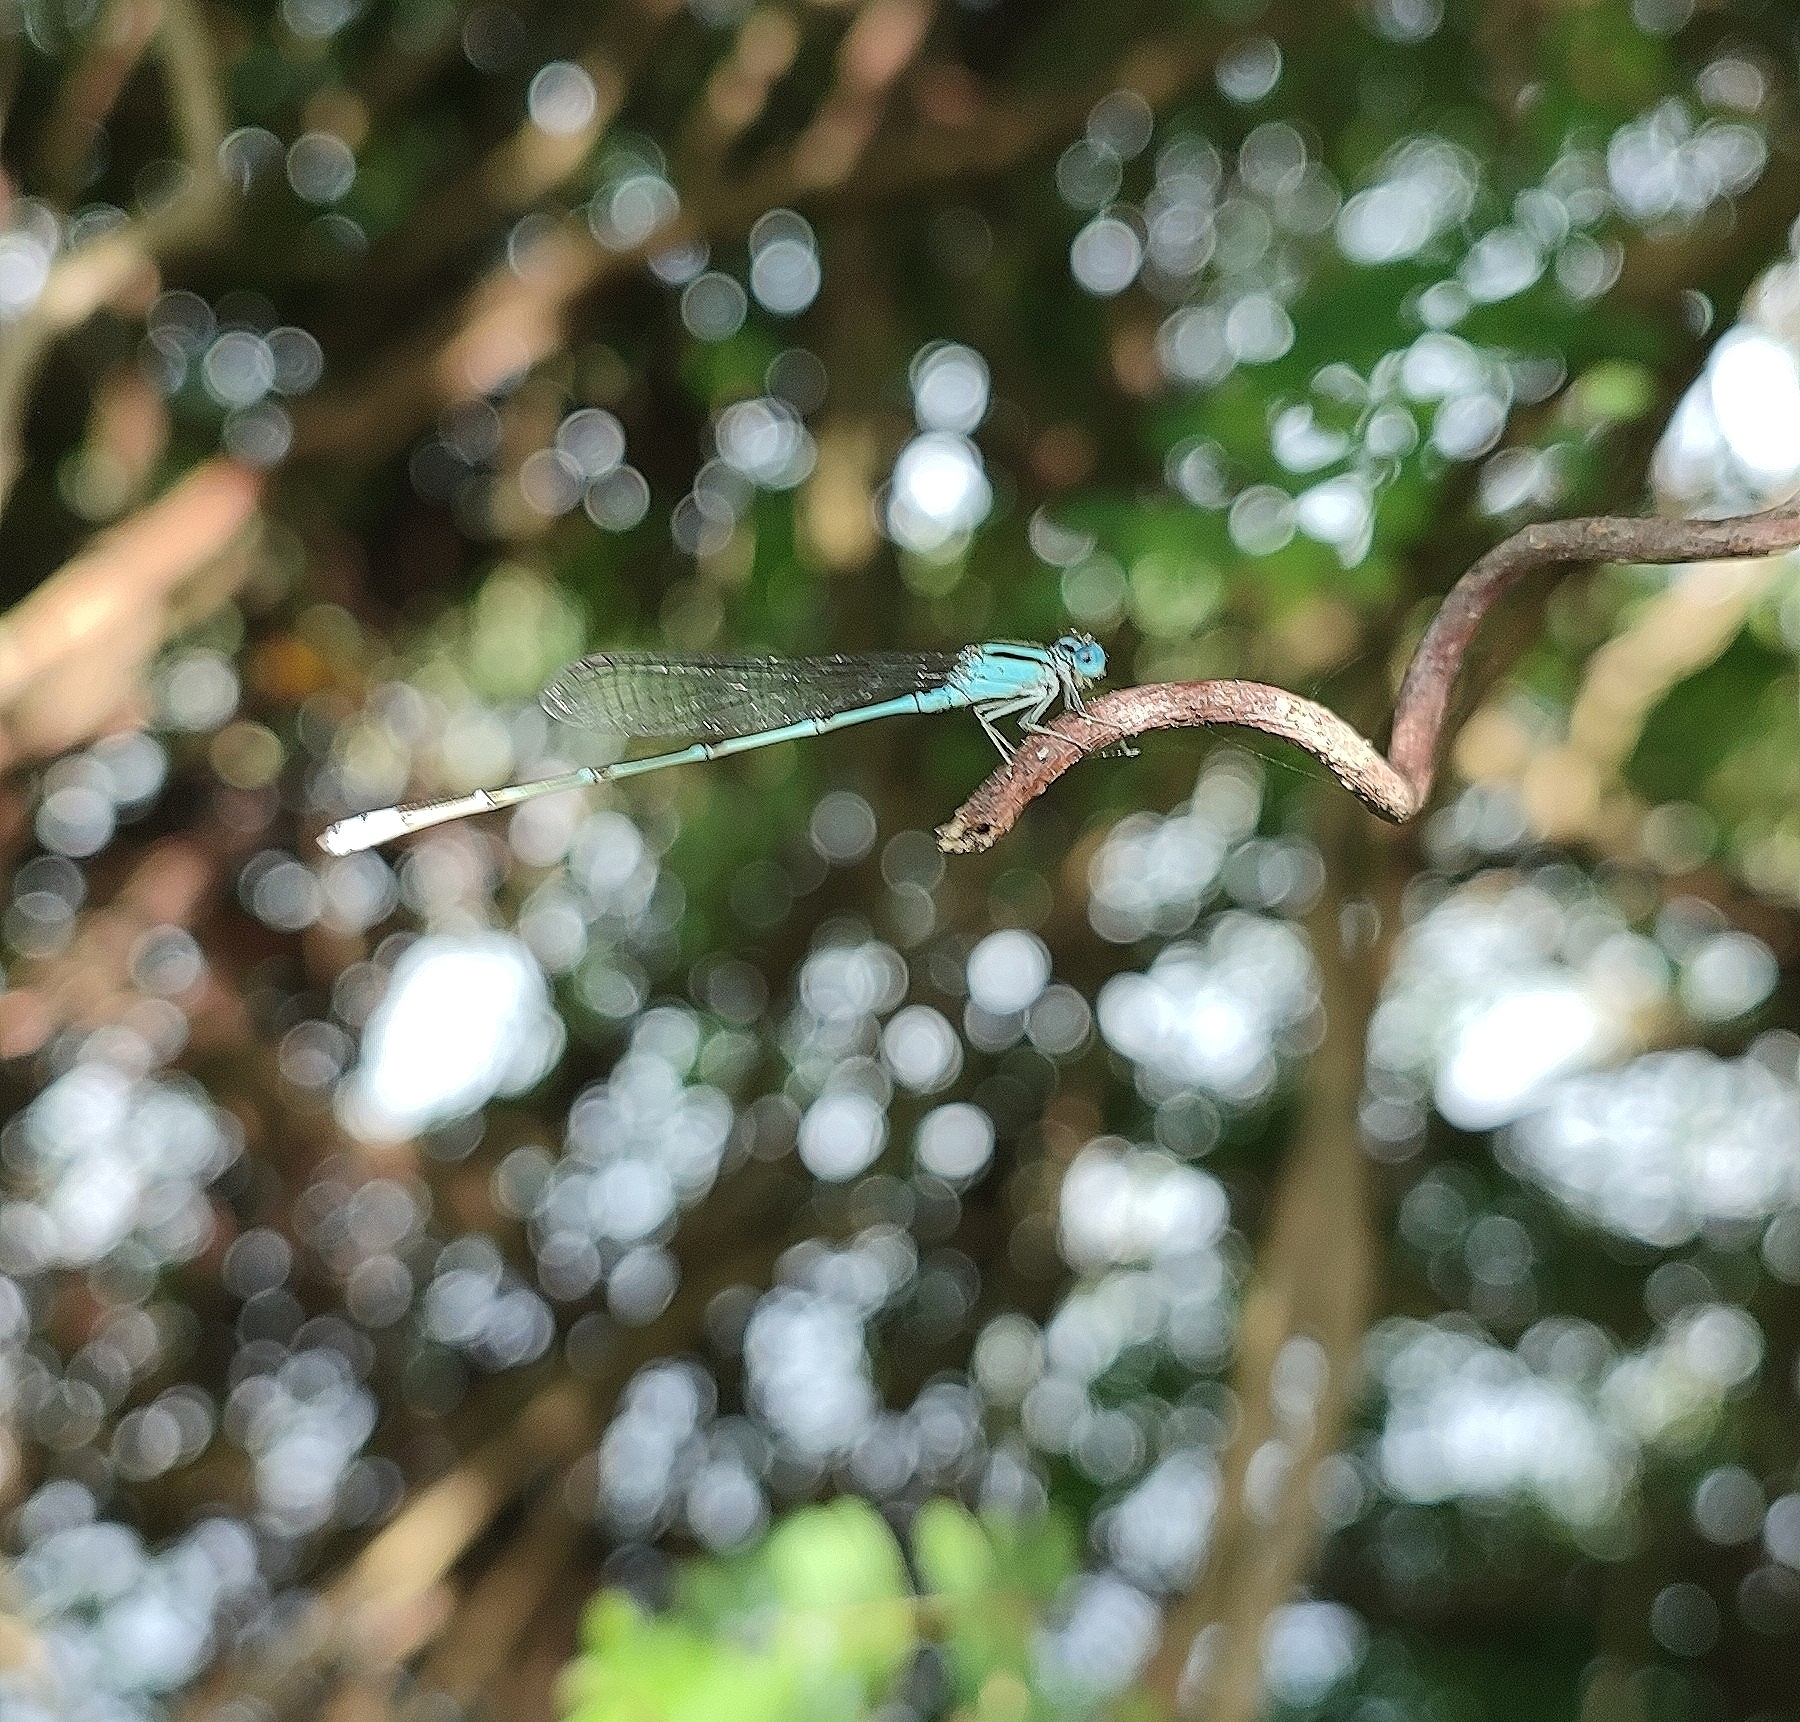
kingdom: Animalia
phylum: Arthropoda
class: Insecta
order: Odonata
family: Coenagrionidae
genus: Pseudagrion
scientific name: Pseudagrion microcephalum
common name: Blue riverdamsel
